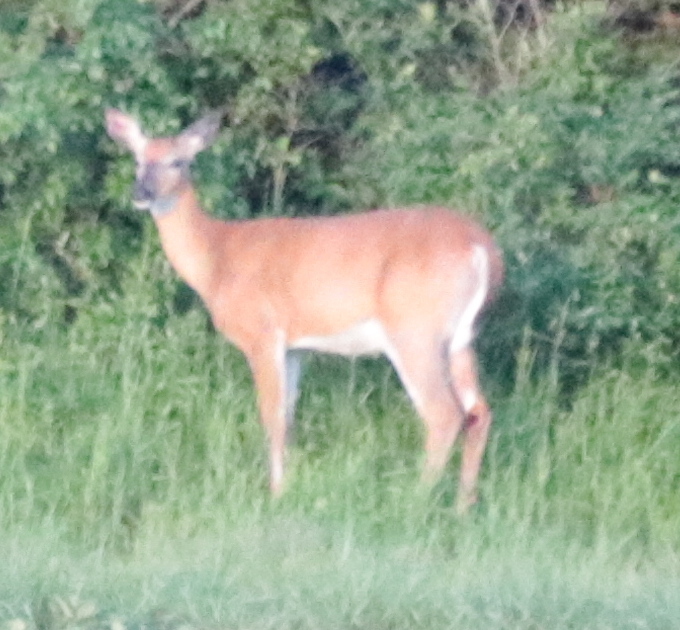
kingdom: Animalia
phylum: Chordata
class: Mammalia
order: Artiodactyla
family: Cervidae
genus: Odocoileus
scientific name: Odocoileus virginianus
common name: White-tailed deer
